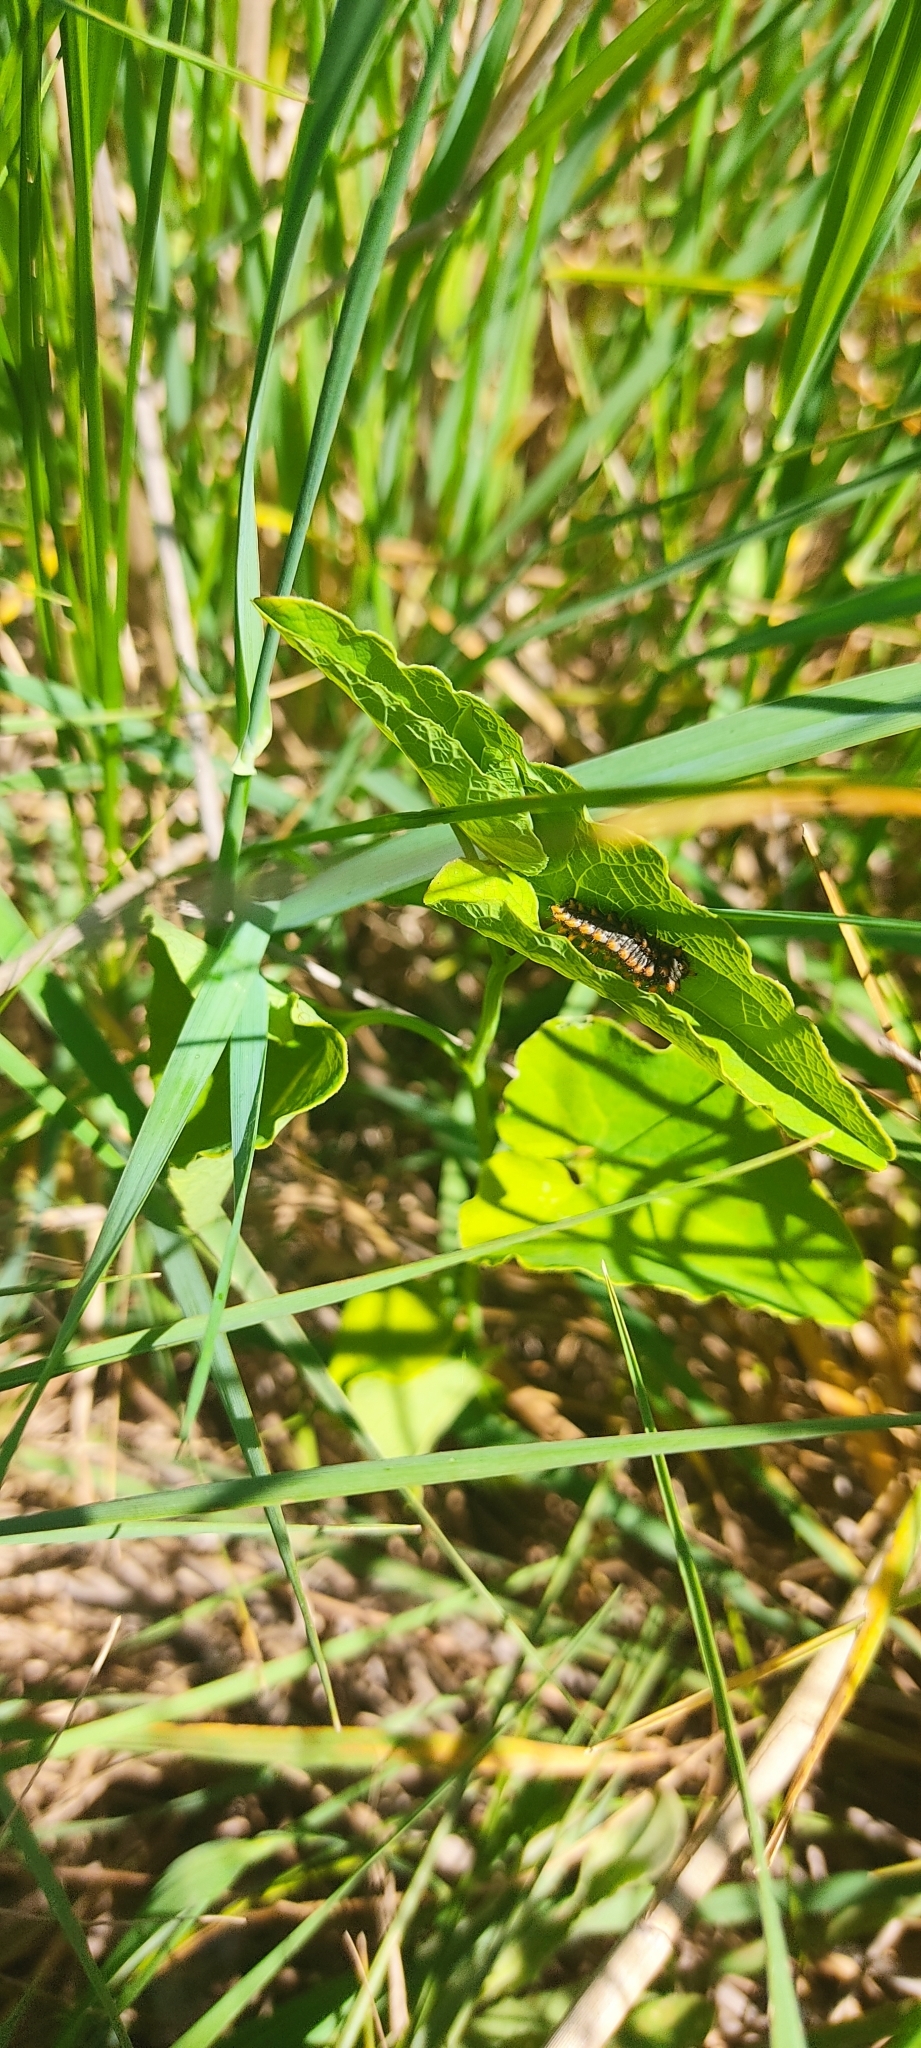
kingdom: Animalia
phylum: Arthropoda
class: Insecta
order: Lepidoptera
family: Papilionidae
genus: Zerynthia
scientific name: Zerynthia polyxena
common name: Southern festoon
